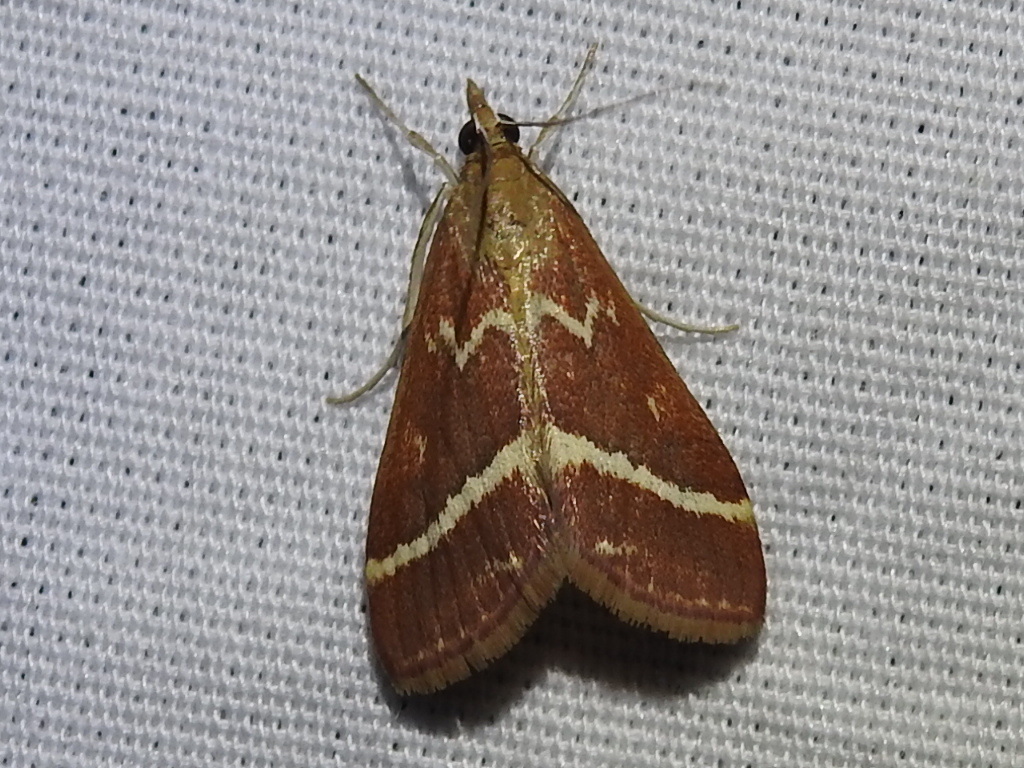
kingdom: Animalia
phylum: Arthropoda
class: Insecta
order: Lepidoptera
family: Crambidae
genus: Pyrausta
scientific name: Pyrausta volupialis
